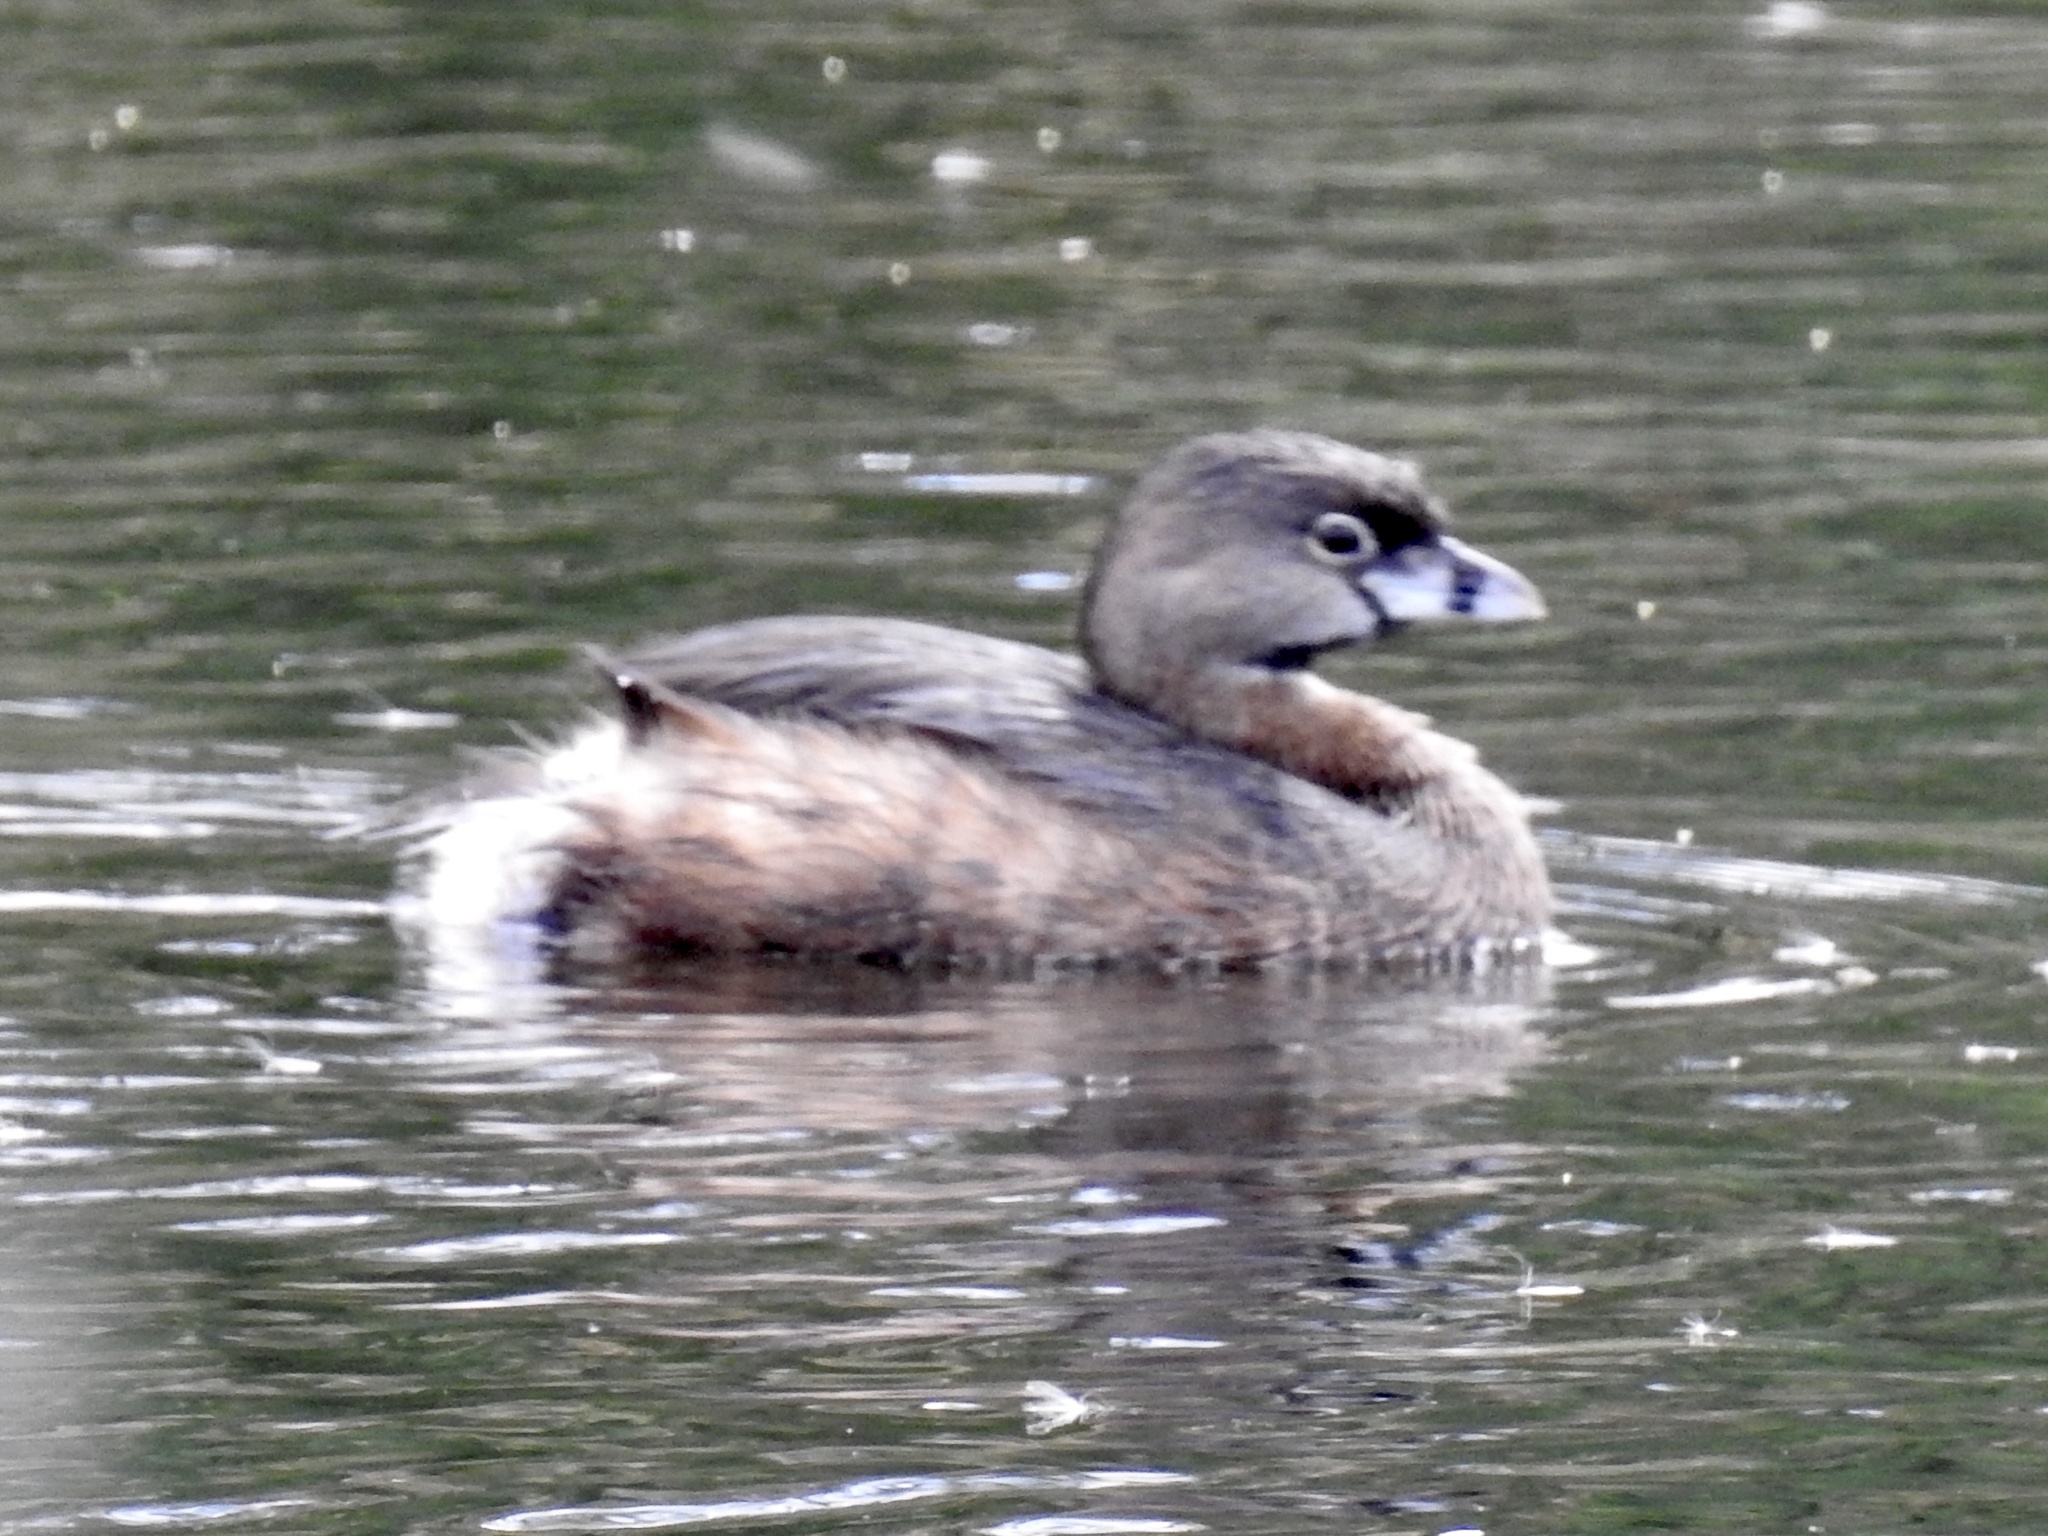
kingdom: Animalia
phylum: Chordata
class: Aves
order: Podicipediformes
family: Podicipedidae
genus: Podilymbus
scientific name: Podilymbus podiceps
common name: Pied-billed grebe
